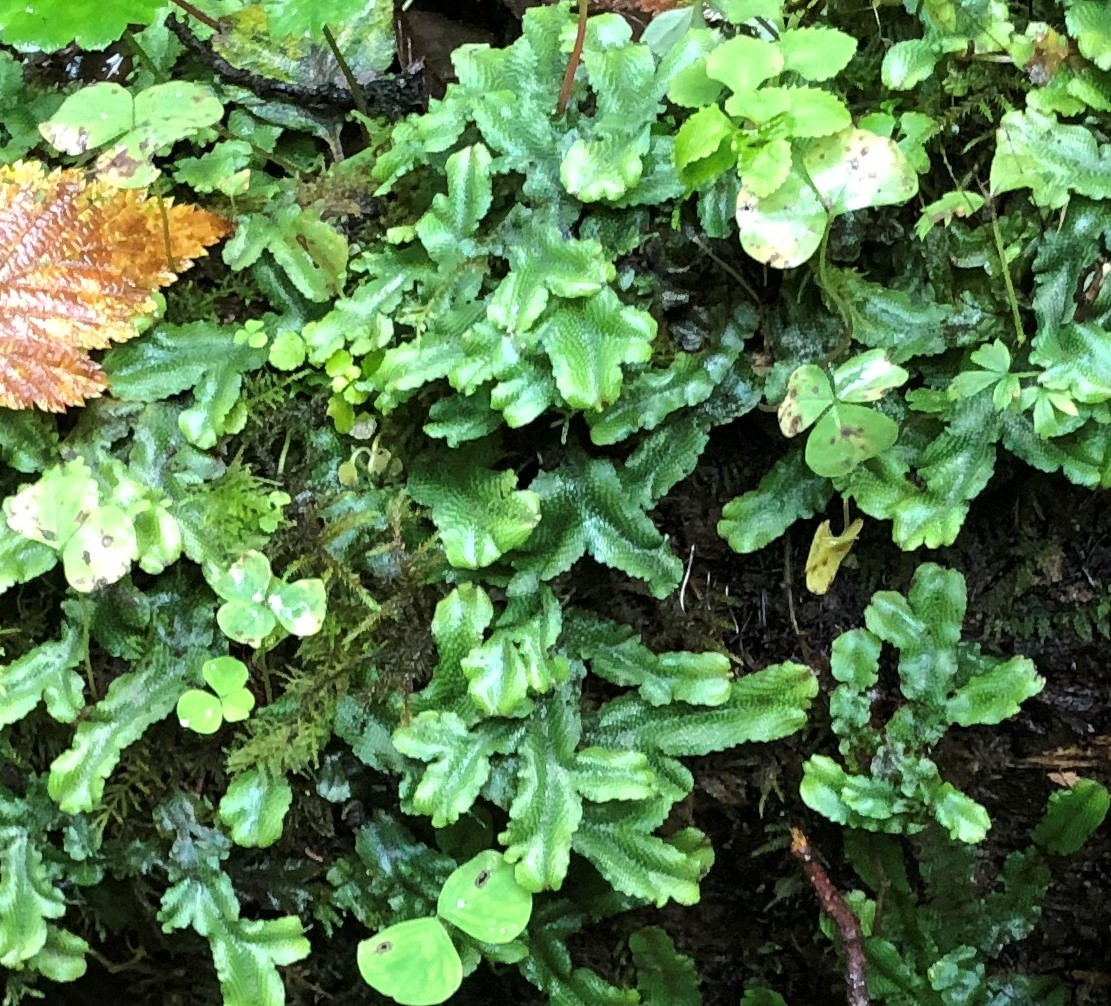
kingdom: Plantae
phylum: Marchantiophyta
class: Marchantiopsida
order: Marchantiales
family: Conocephalaceae
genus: Conocephalum
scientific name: Conocephalum conicum
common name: Great scented liverwort
